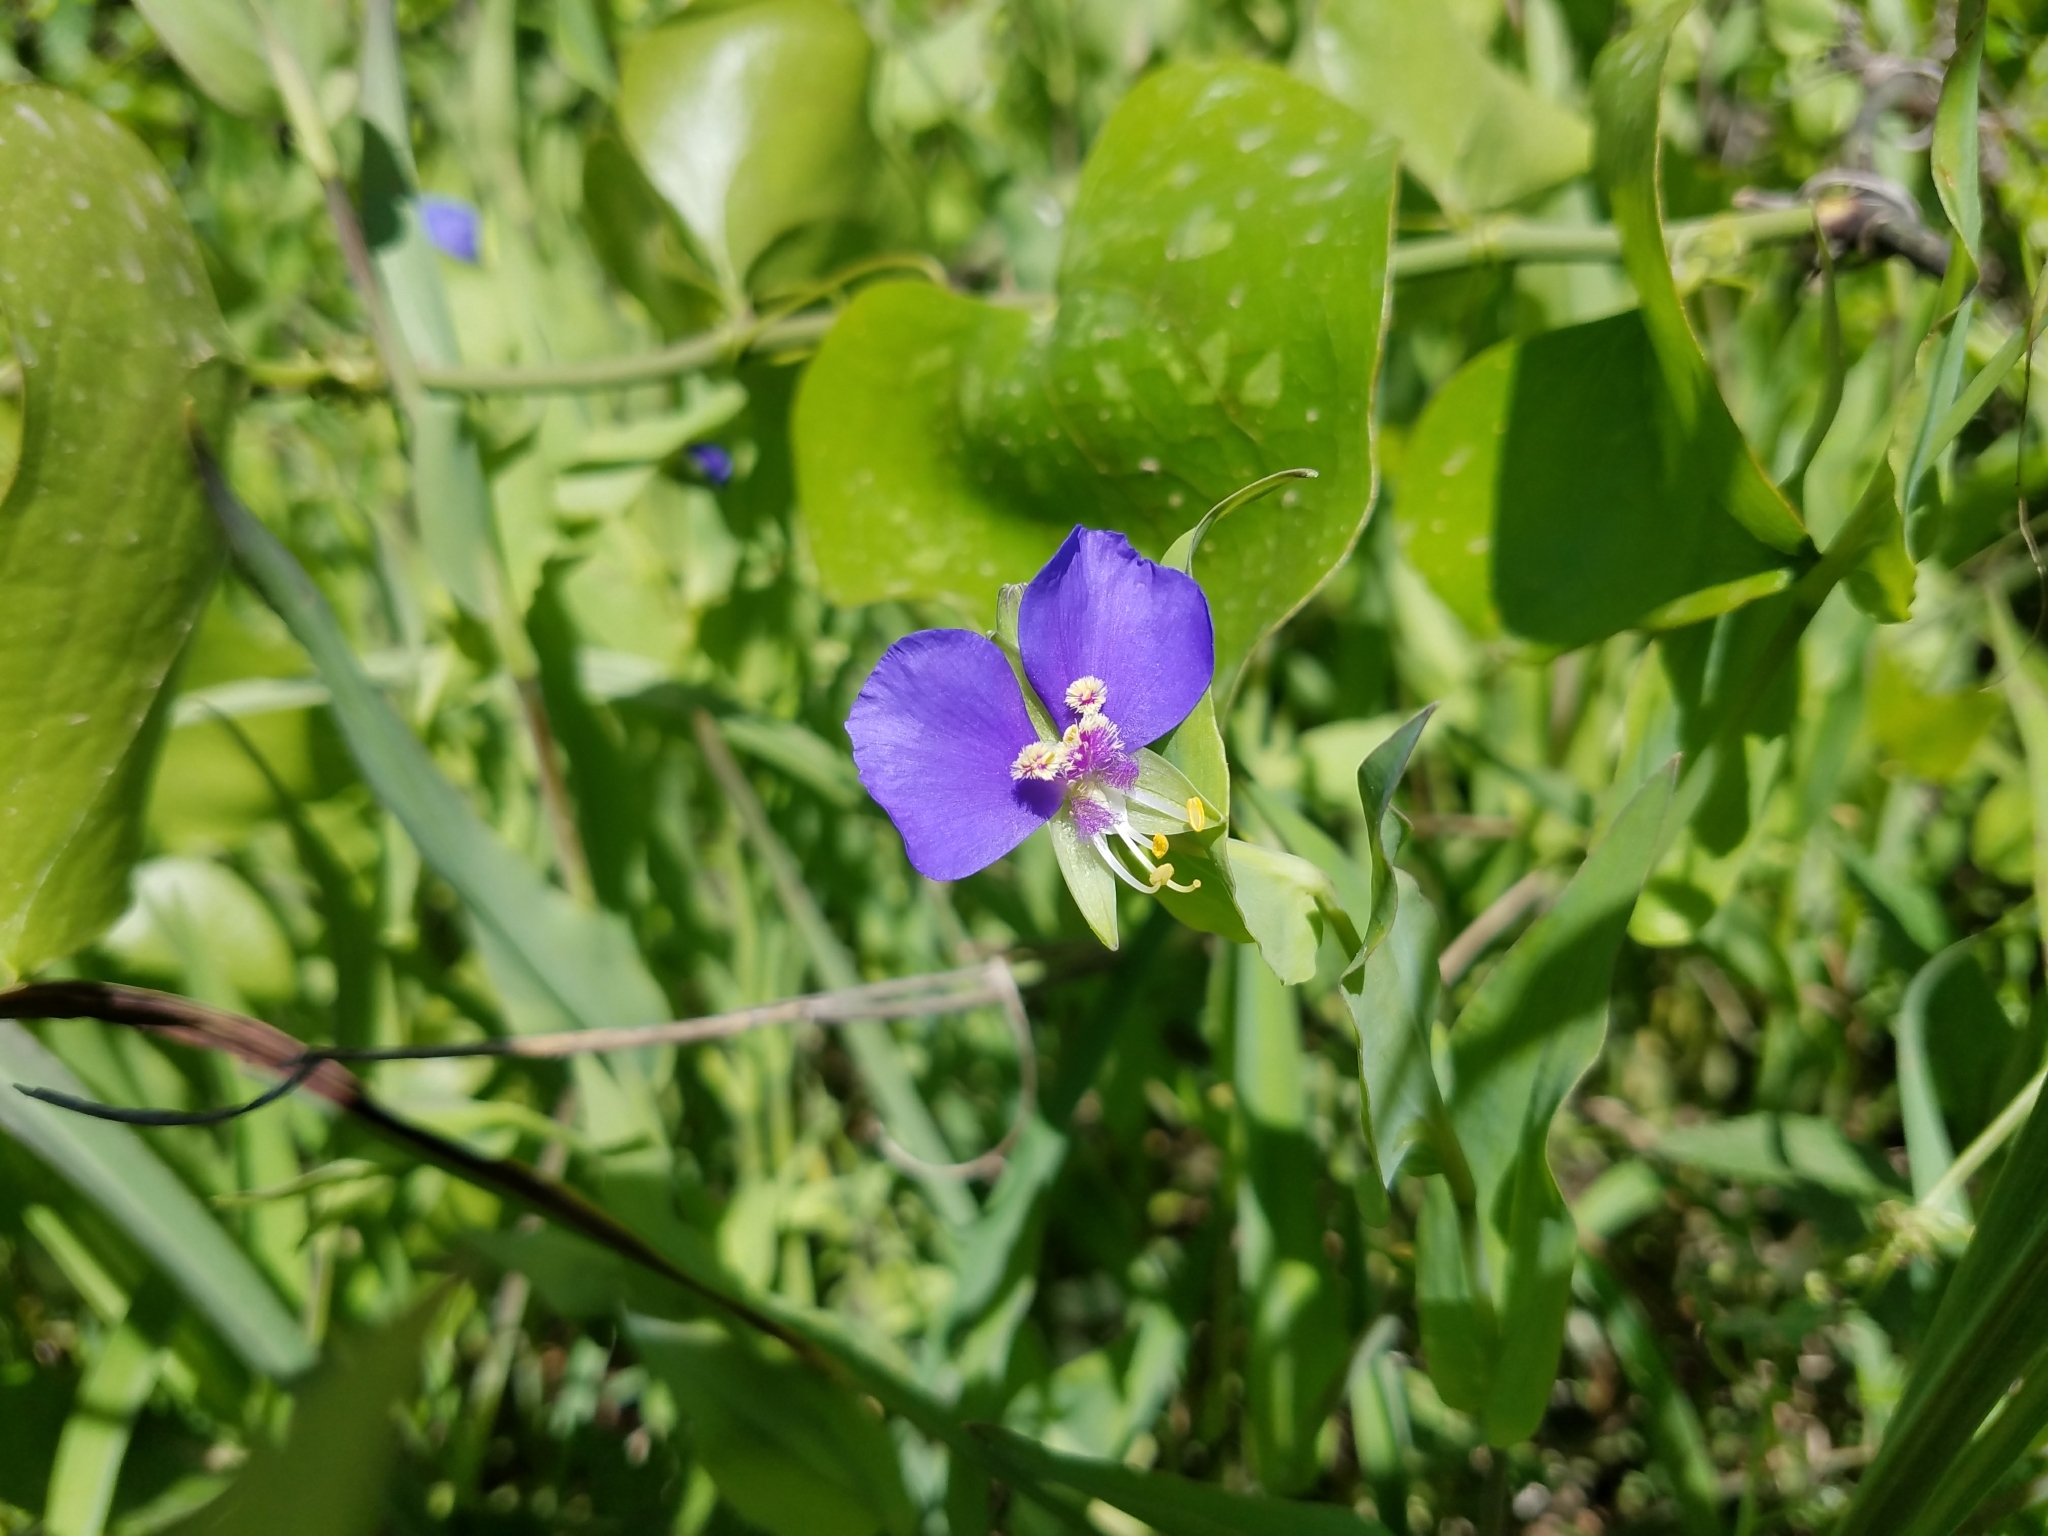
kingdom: Plantae
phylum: Tracheophyta
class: Liliopsida
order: Commelinales
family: Commelinaceae
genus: Tinantia
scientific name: Tinantia anomala
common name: False dayflower
